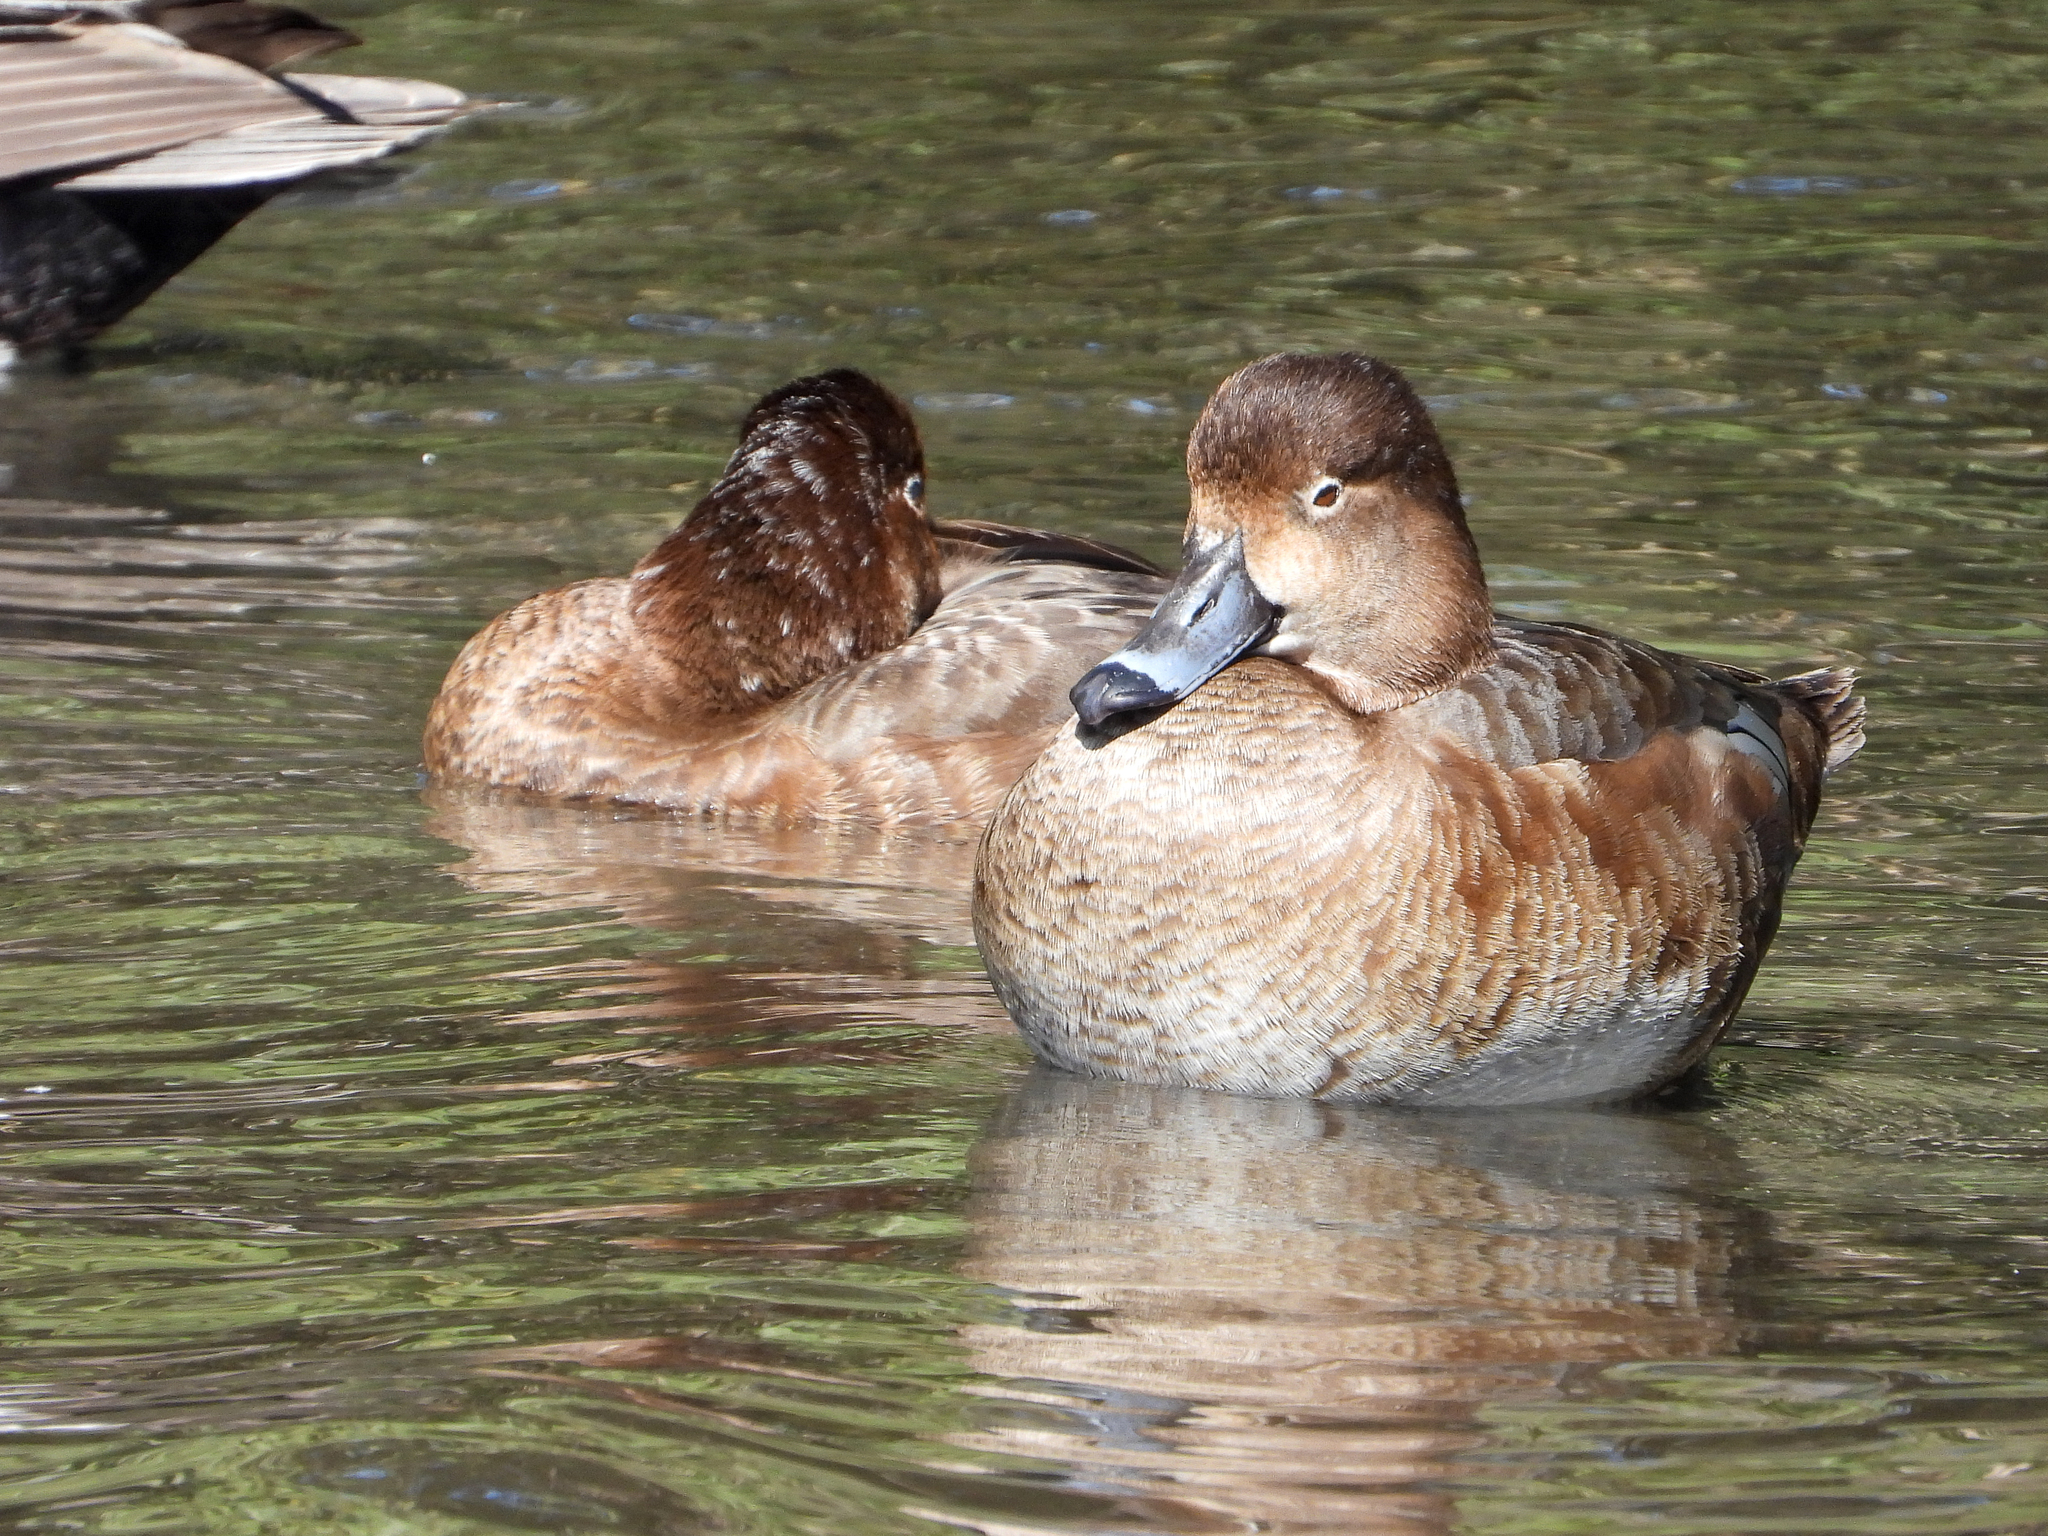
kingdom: Animalia
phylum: Chordata
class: Aves
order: Anseriformes
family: Anatidae
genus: Aythya
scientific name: Aythya americana
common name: Redhead
